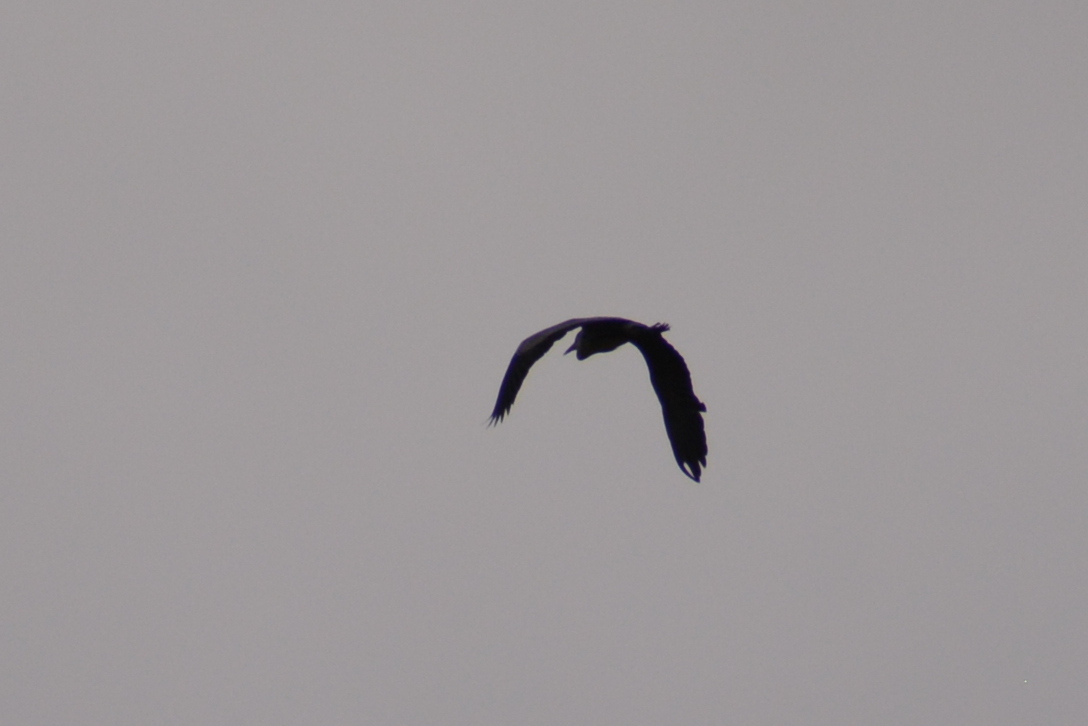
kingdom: Animalia
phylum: Chordata
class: Aves
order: Pelecaniformes
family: Ardeidae
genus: Ardea
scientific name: Ardea cinerea
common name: Grey heron
